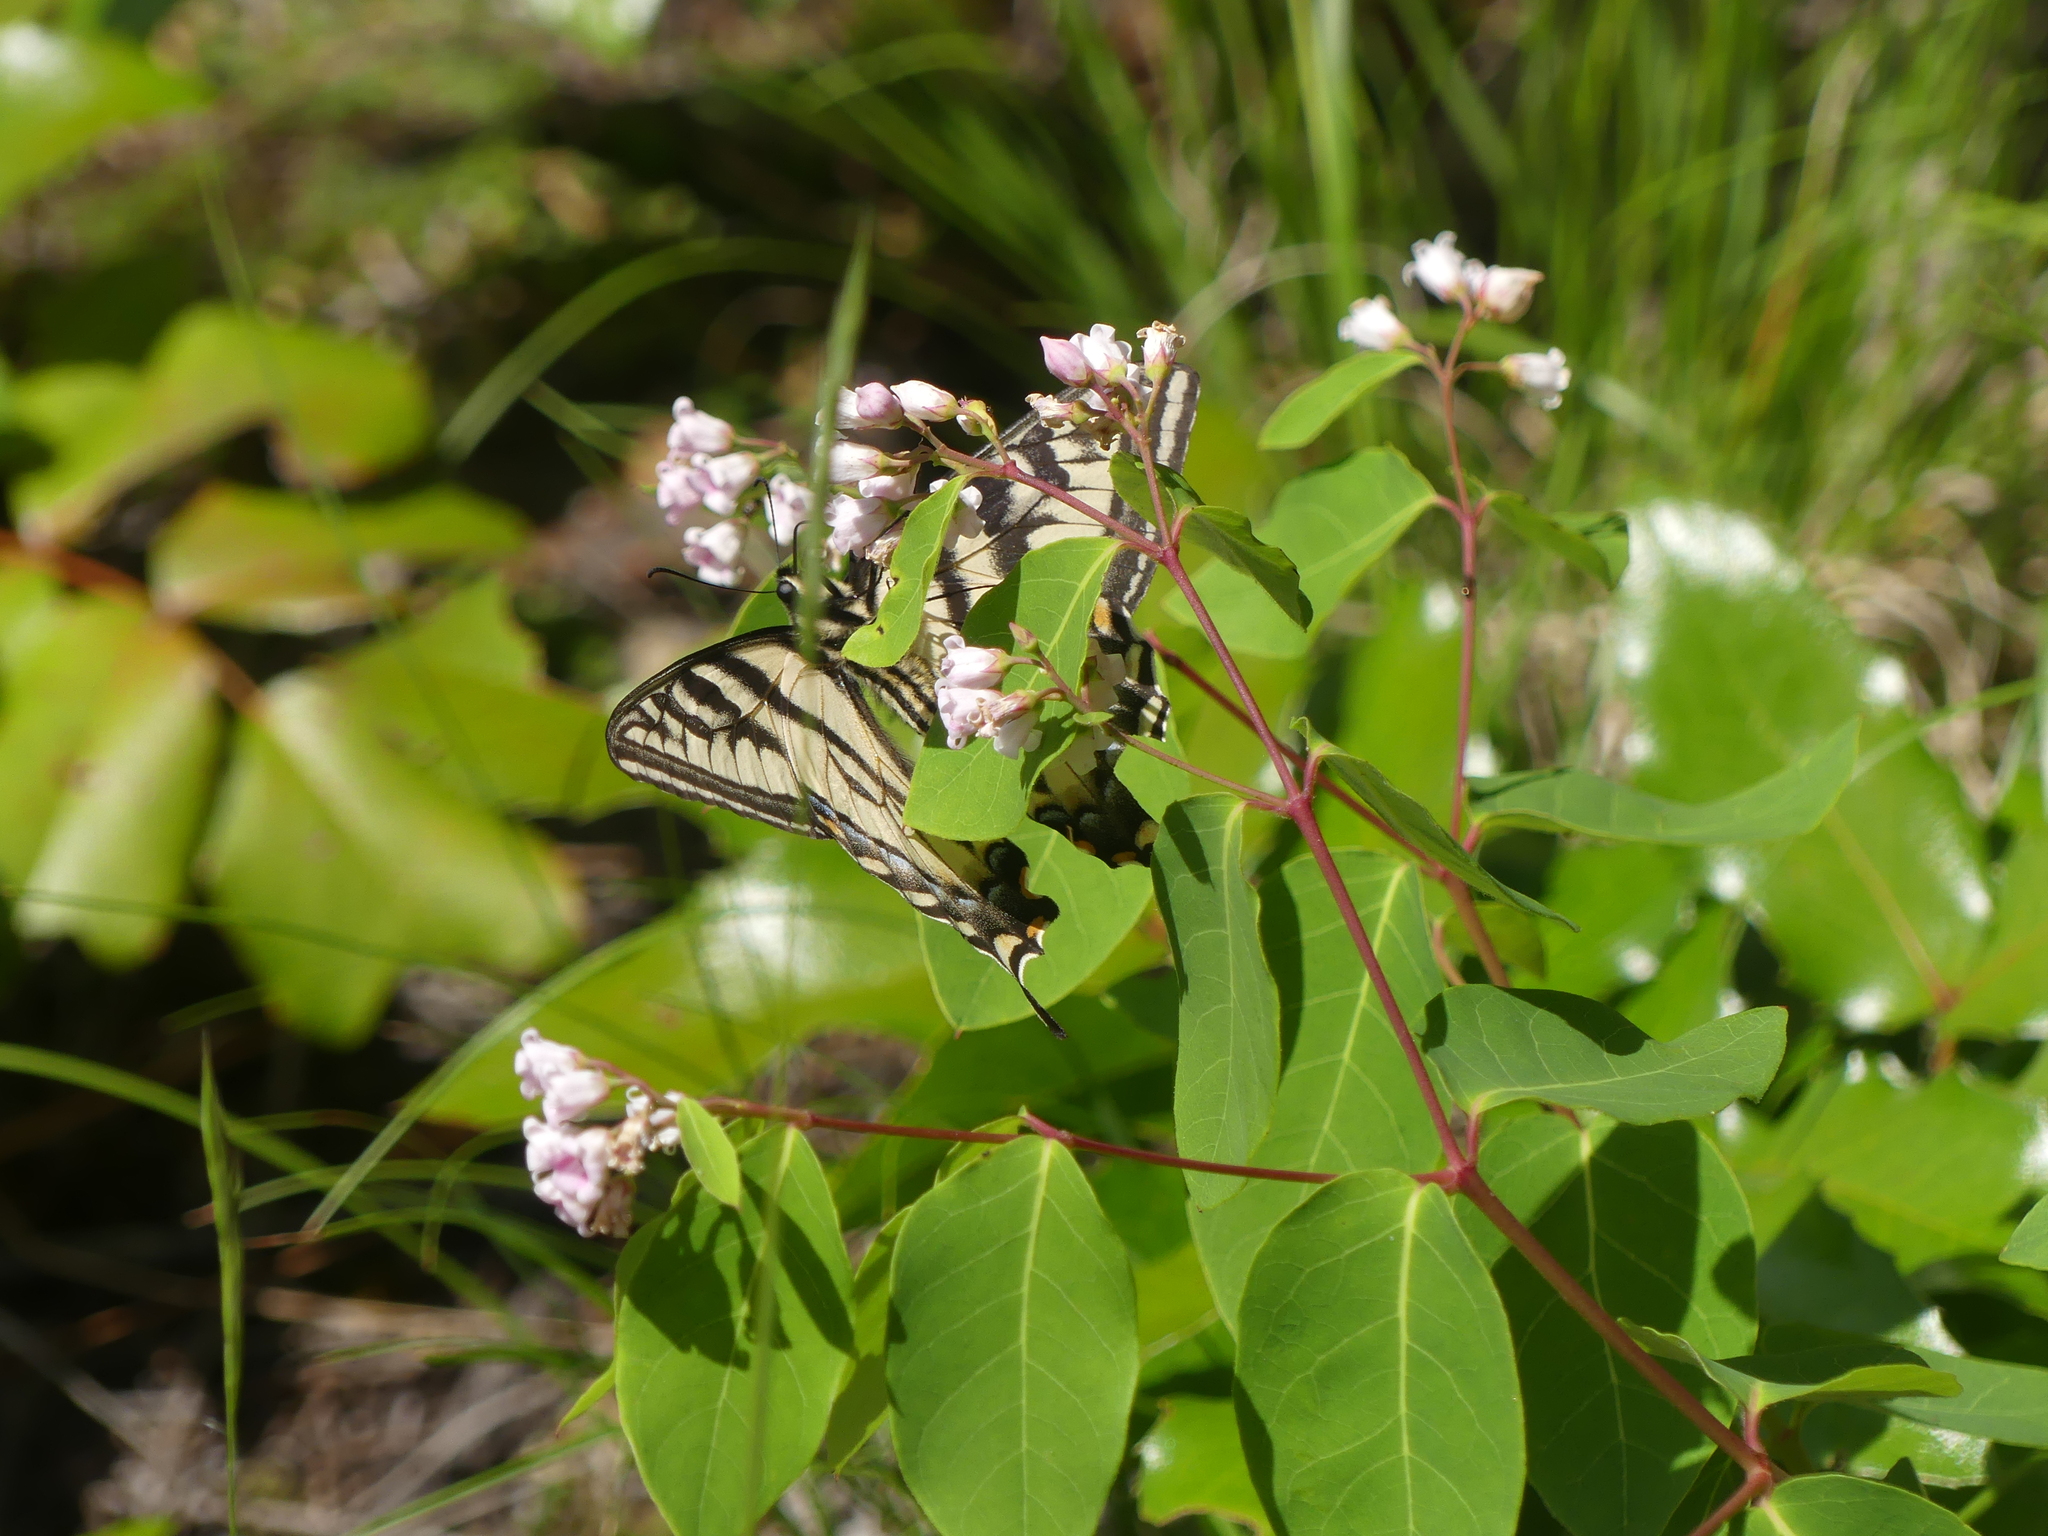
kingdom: Animalia
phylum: Arthropoda
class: Insecta
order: Lepidoptera
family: Papilionidae
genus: Papilio
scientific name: Papilio rutulus
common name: Western tiger swallowtail
